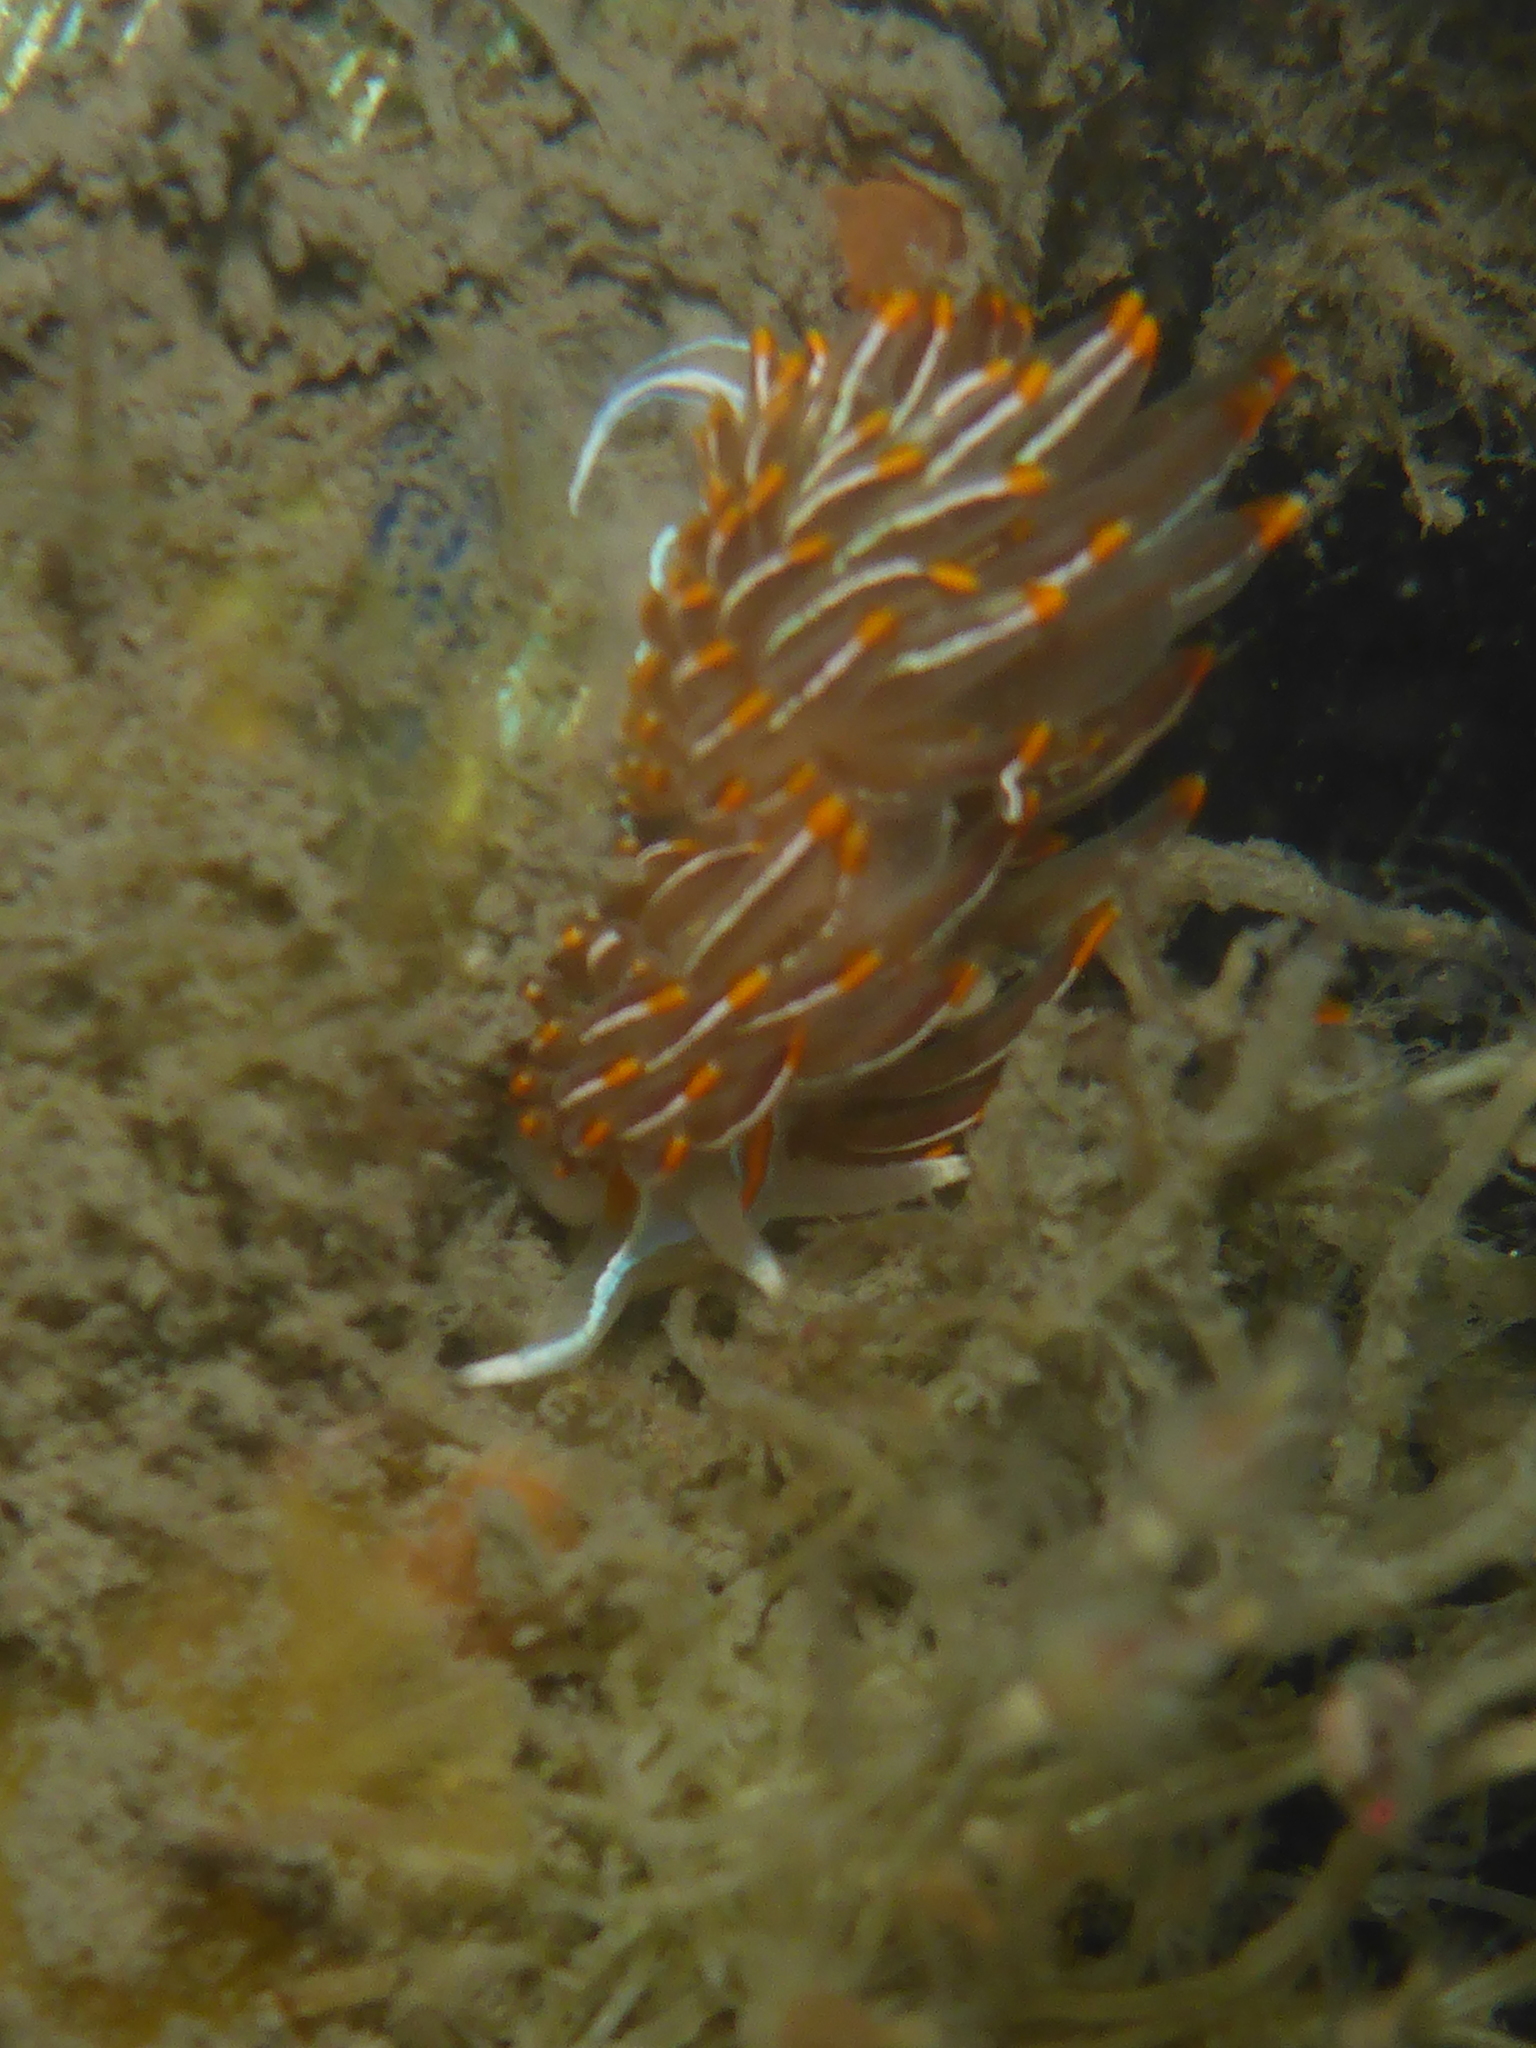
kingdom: Animalia
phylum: Mollusca
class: Gastropoda
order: Nudibranchia
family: Myrrhinidae
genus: Hermissenda
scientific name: Hermissenda crassicornis
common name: Hermissenda
